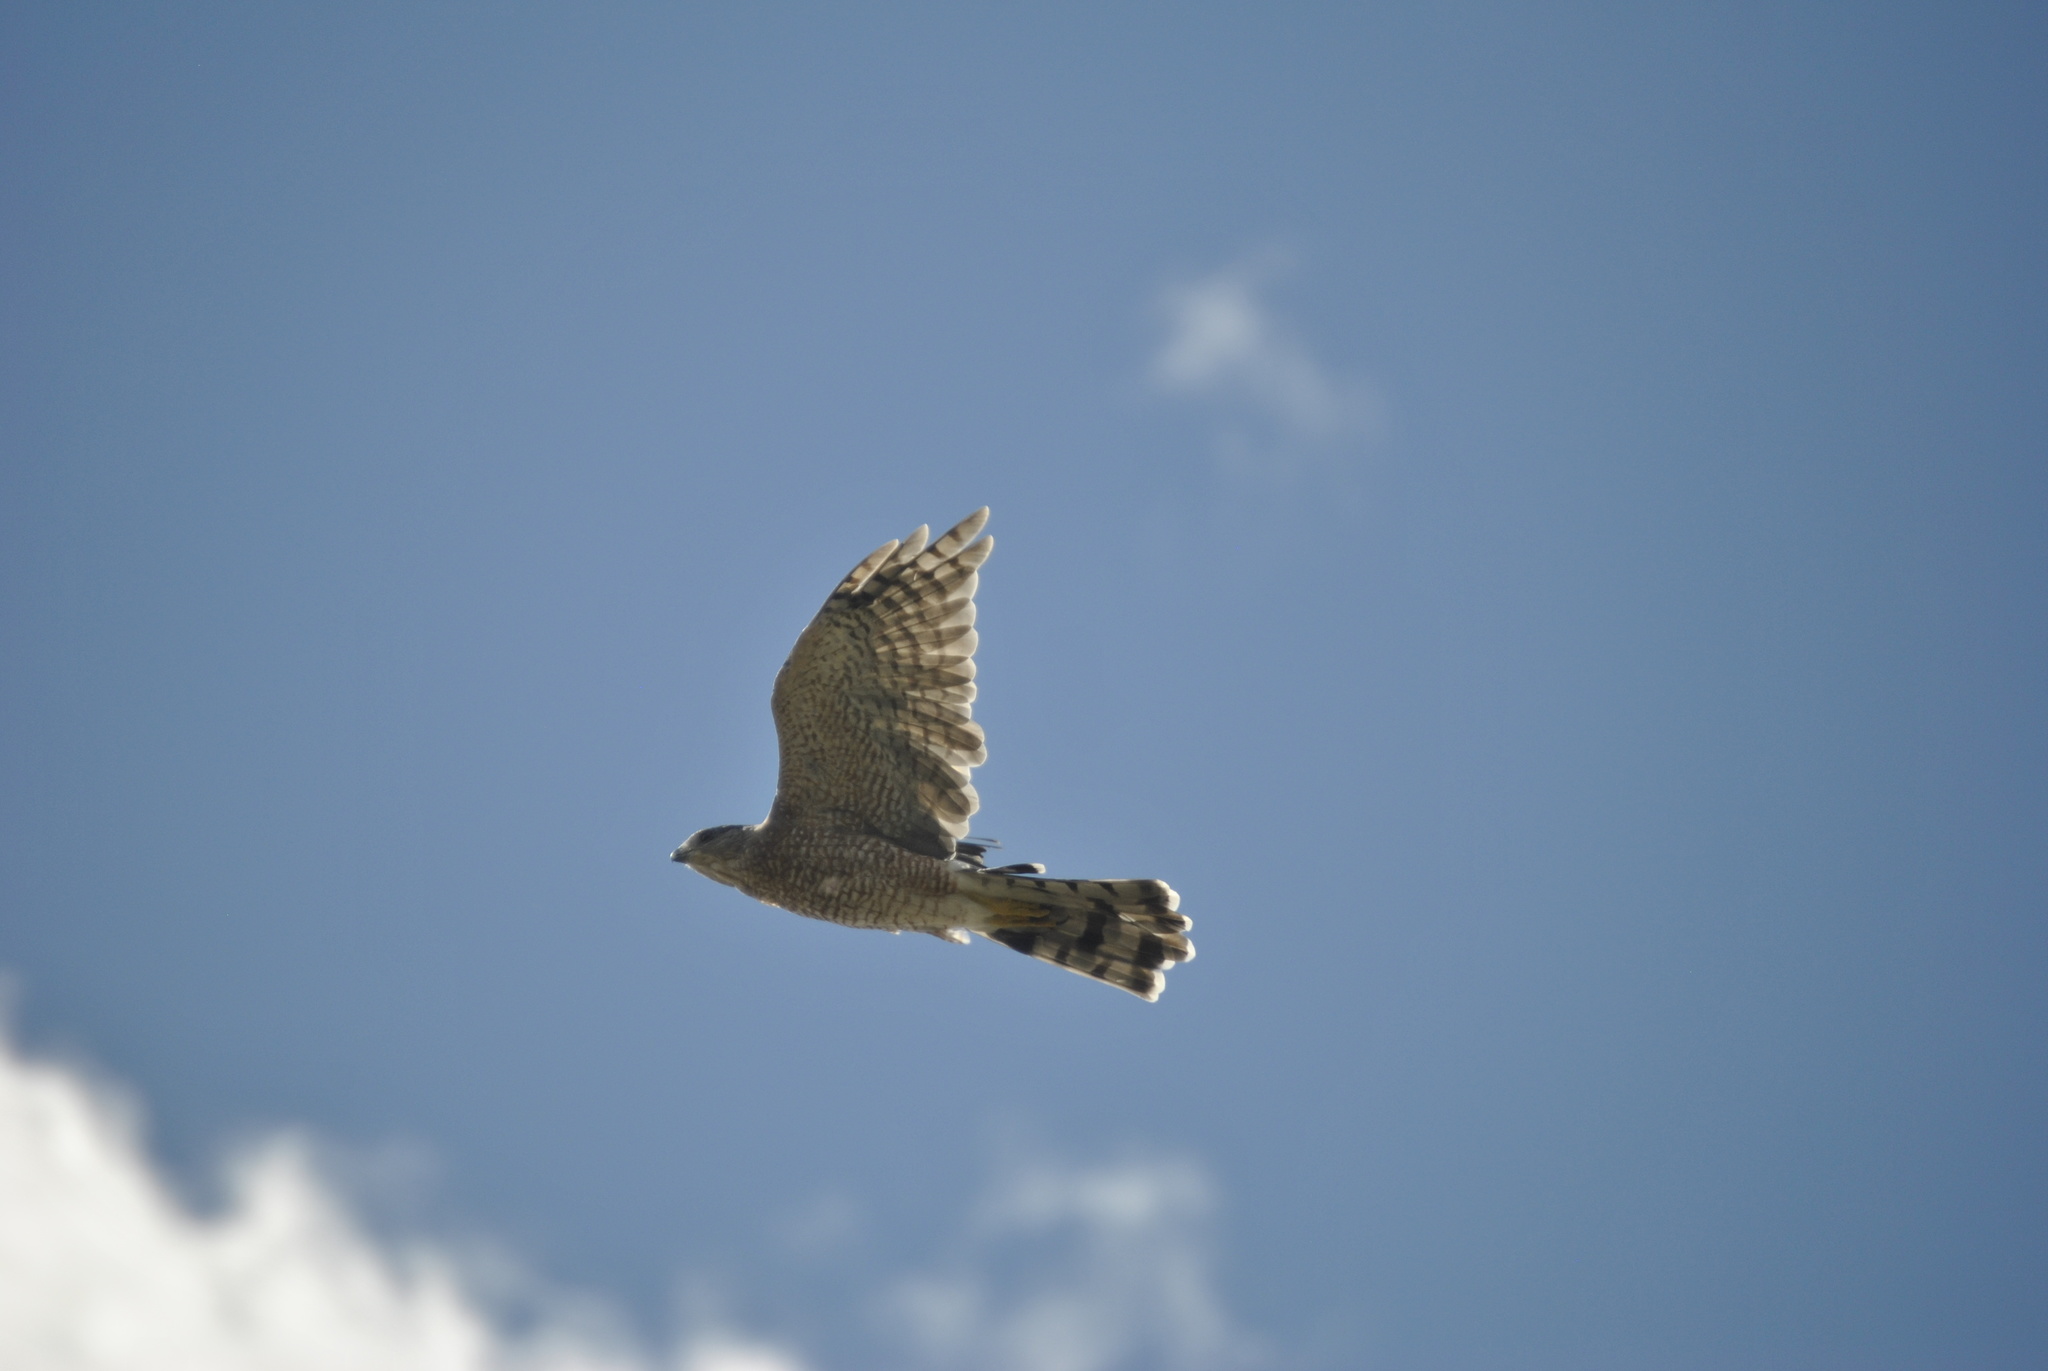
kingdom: Animalia
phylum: Chordata
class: Aves
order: Accipitriformes
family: Accipitridae
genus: Accipiter
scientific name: Accipiter cooperii
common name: Cooper's hawk
